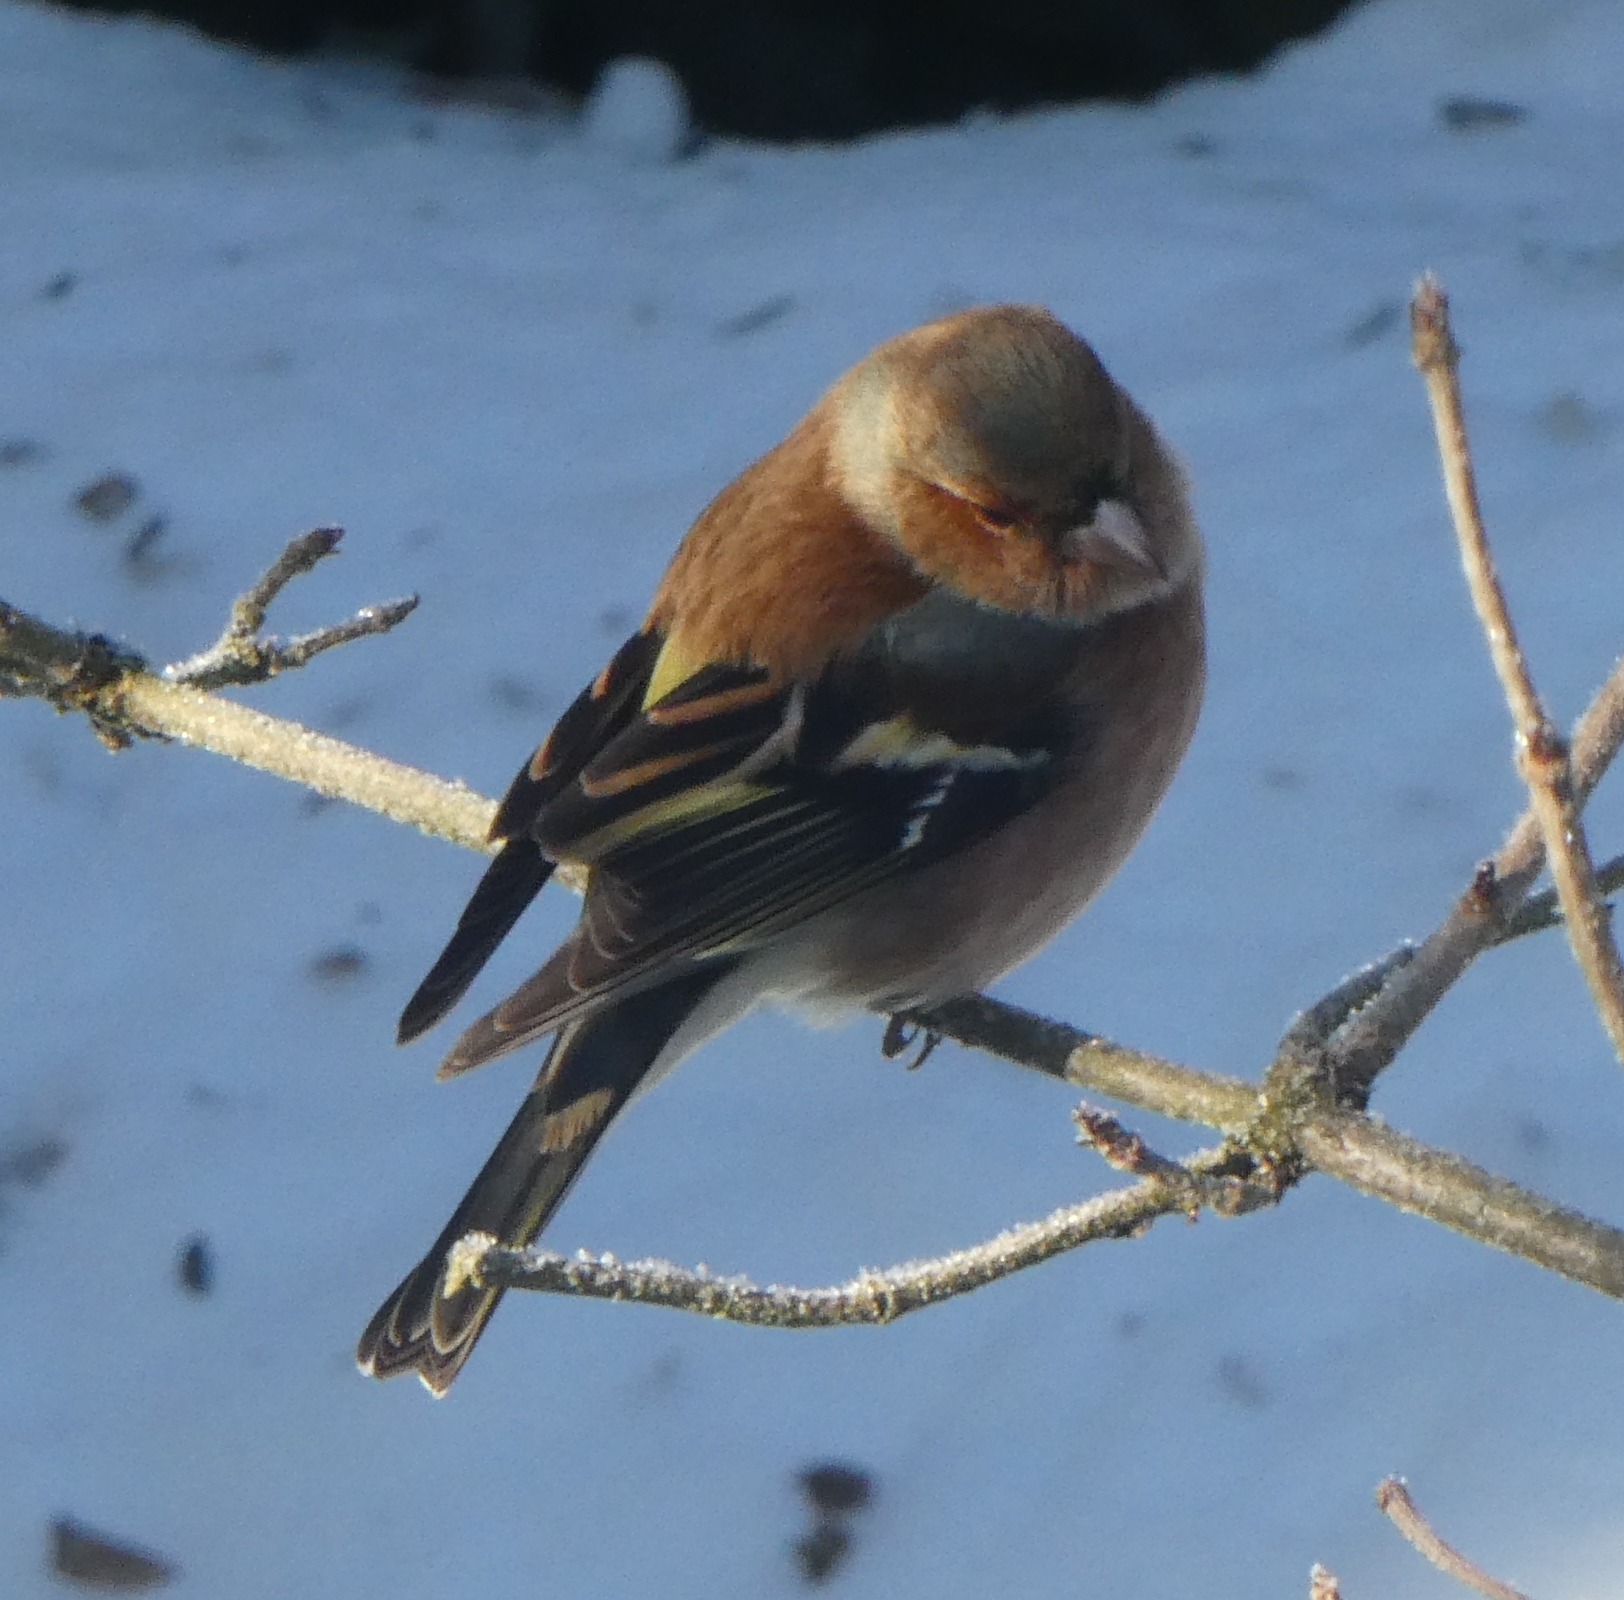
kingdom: Animalia
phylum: Chordata
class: Aves
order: Passeriformes
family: Fringillidae
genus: Fringilla
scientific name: Fringilla coelebs
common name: Common chaffinch
